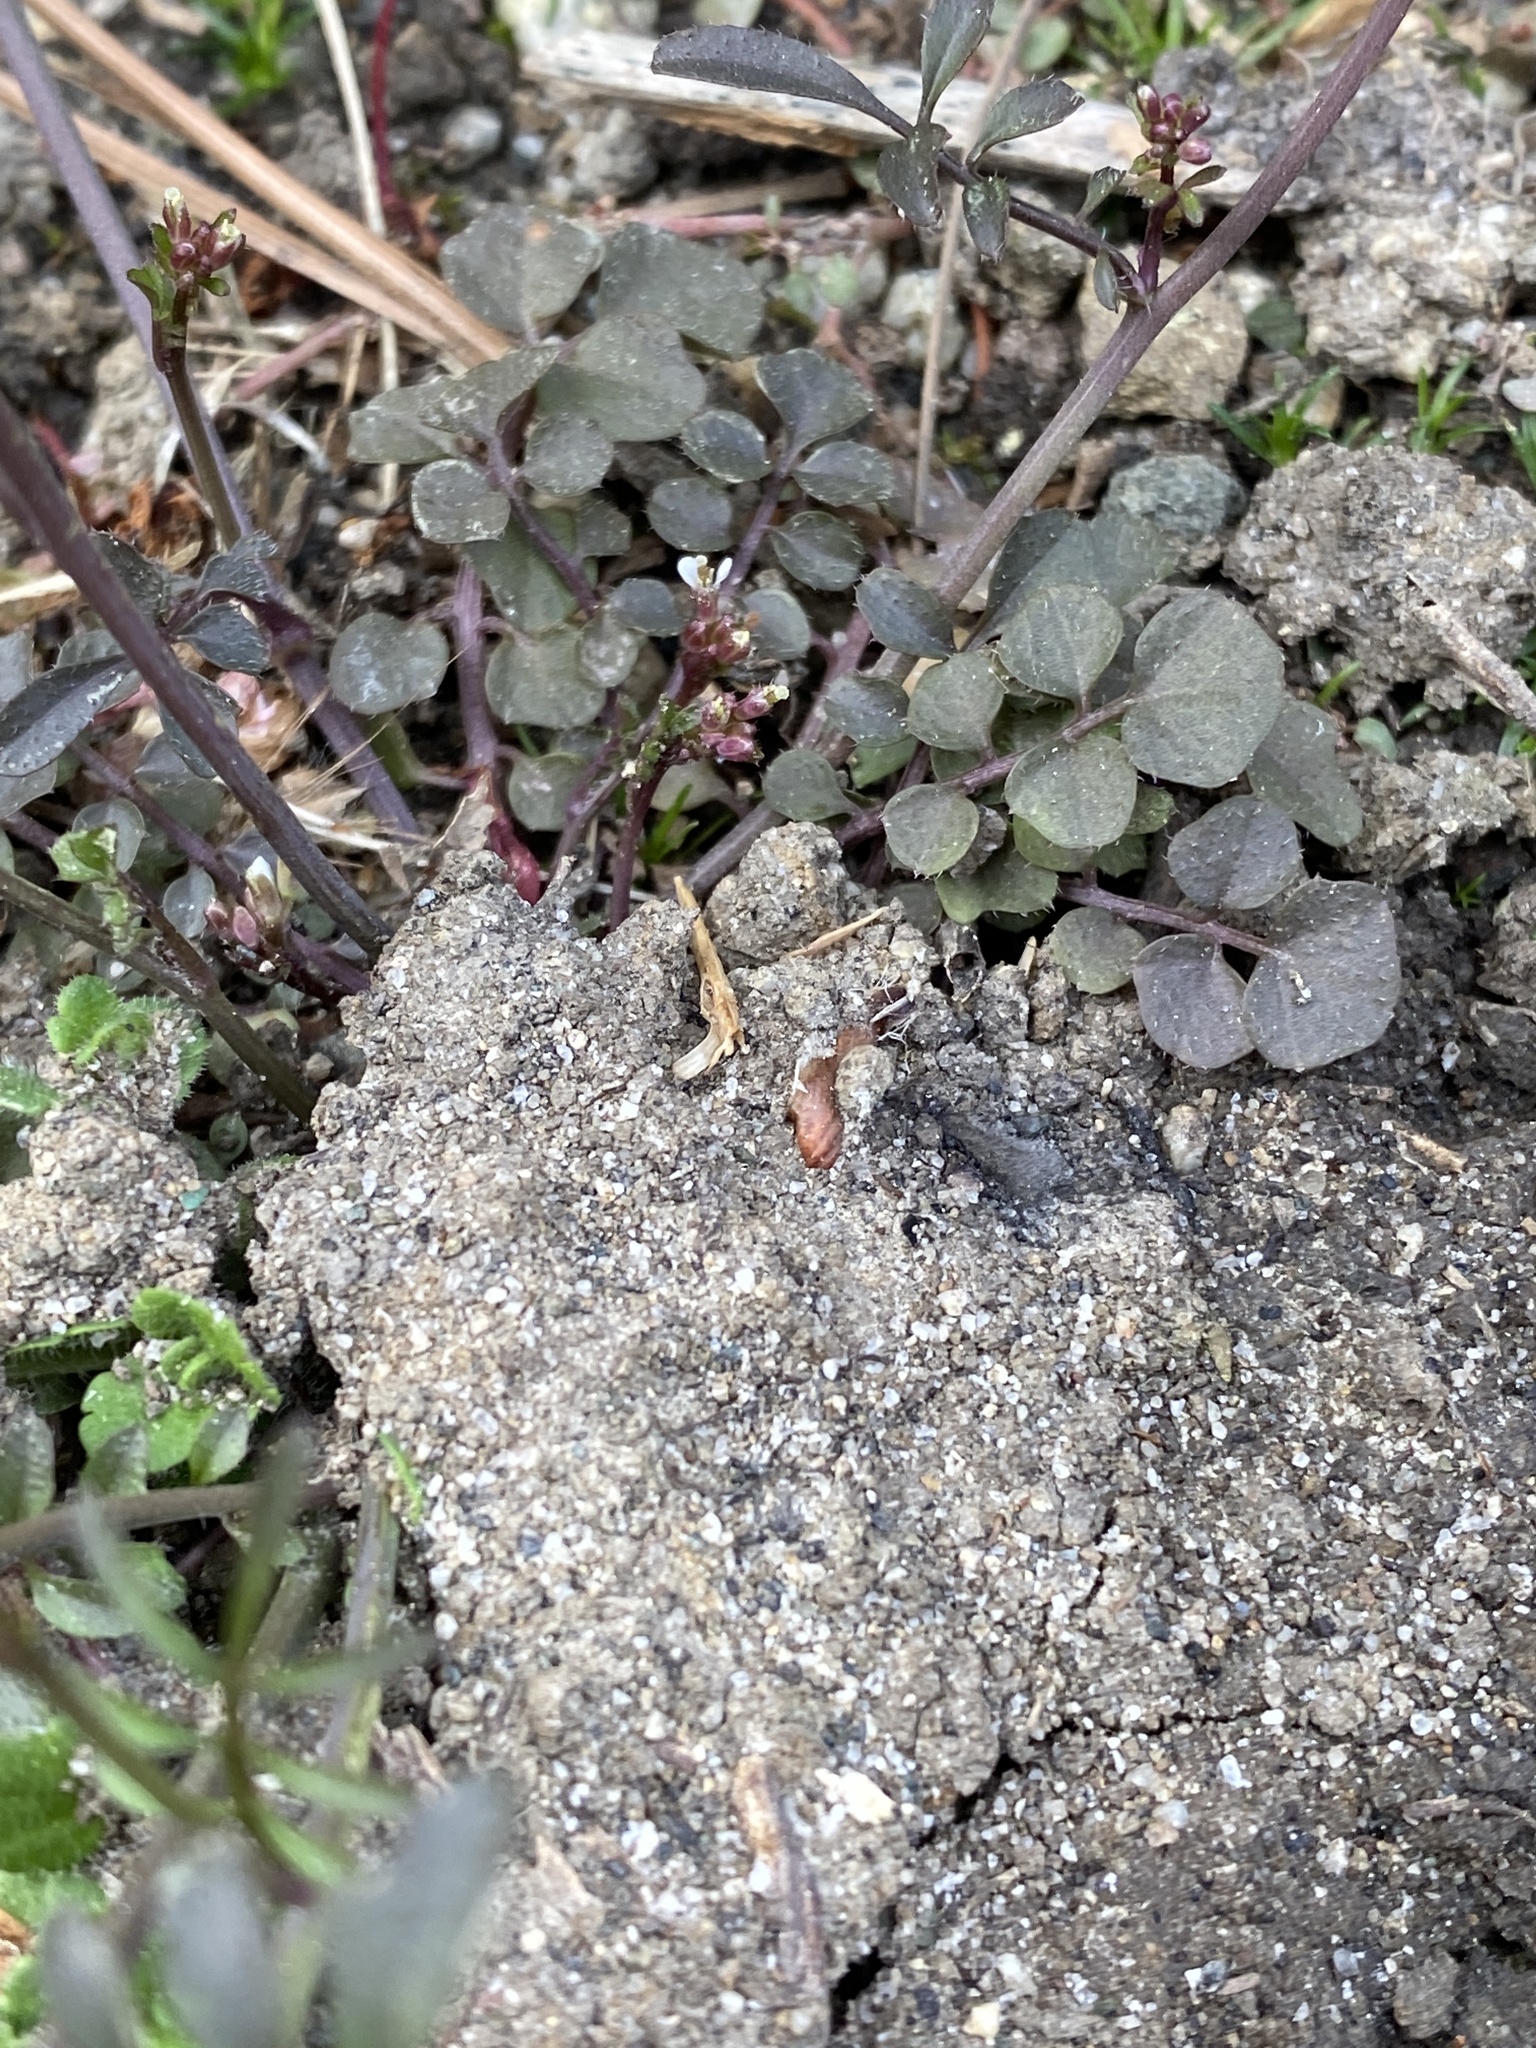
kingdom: Plantae
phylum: Tracheophyta
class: Magnoliopsida
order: Brassicales
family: Brassicaceae
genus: Cardamine
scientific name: Cardamine hirsuta
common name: Hairy bittercress
